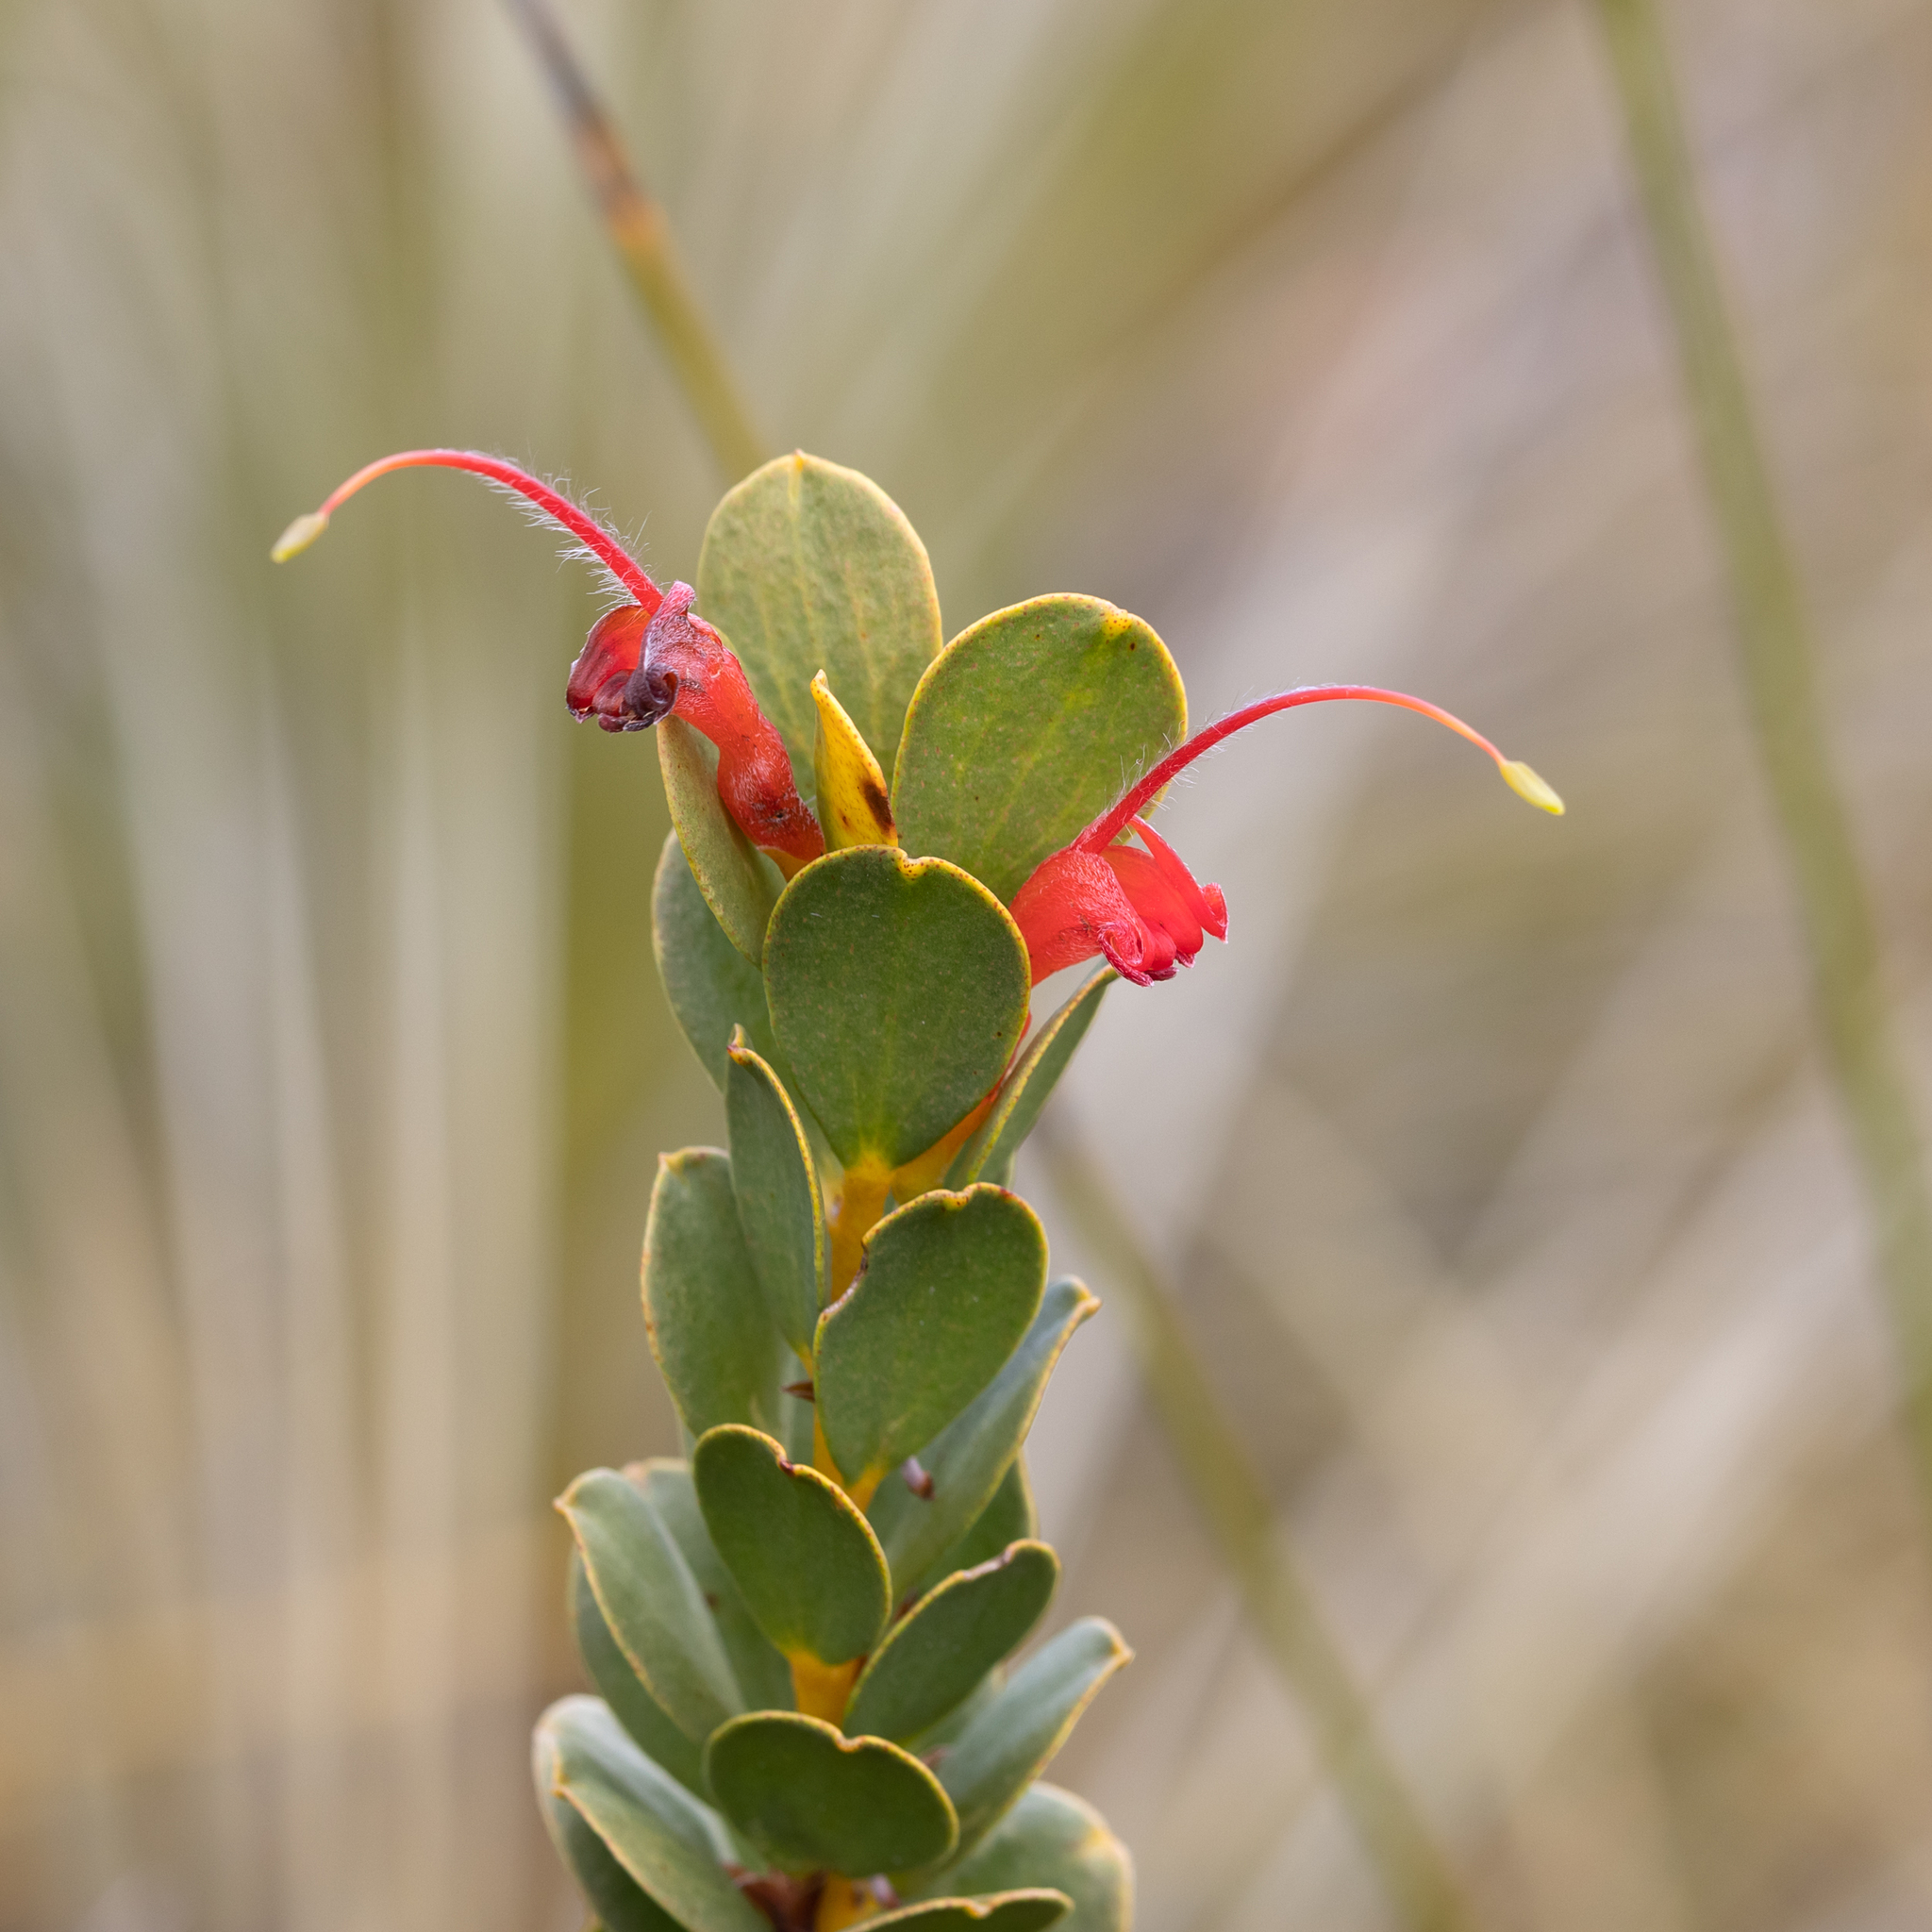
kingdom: Plantae
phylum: Tracheophyta
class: Magnoliopsida
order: Proteales
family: Proteaceae
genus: Adenanthos
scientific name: Adenanthos obovatus
